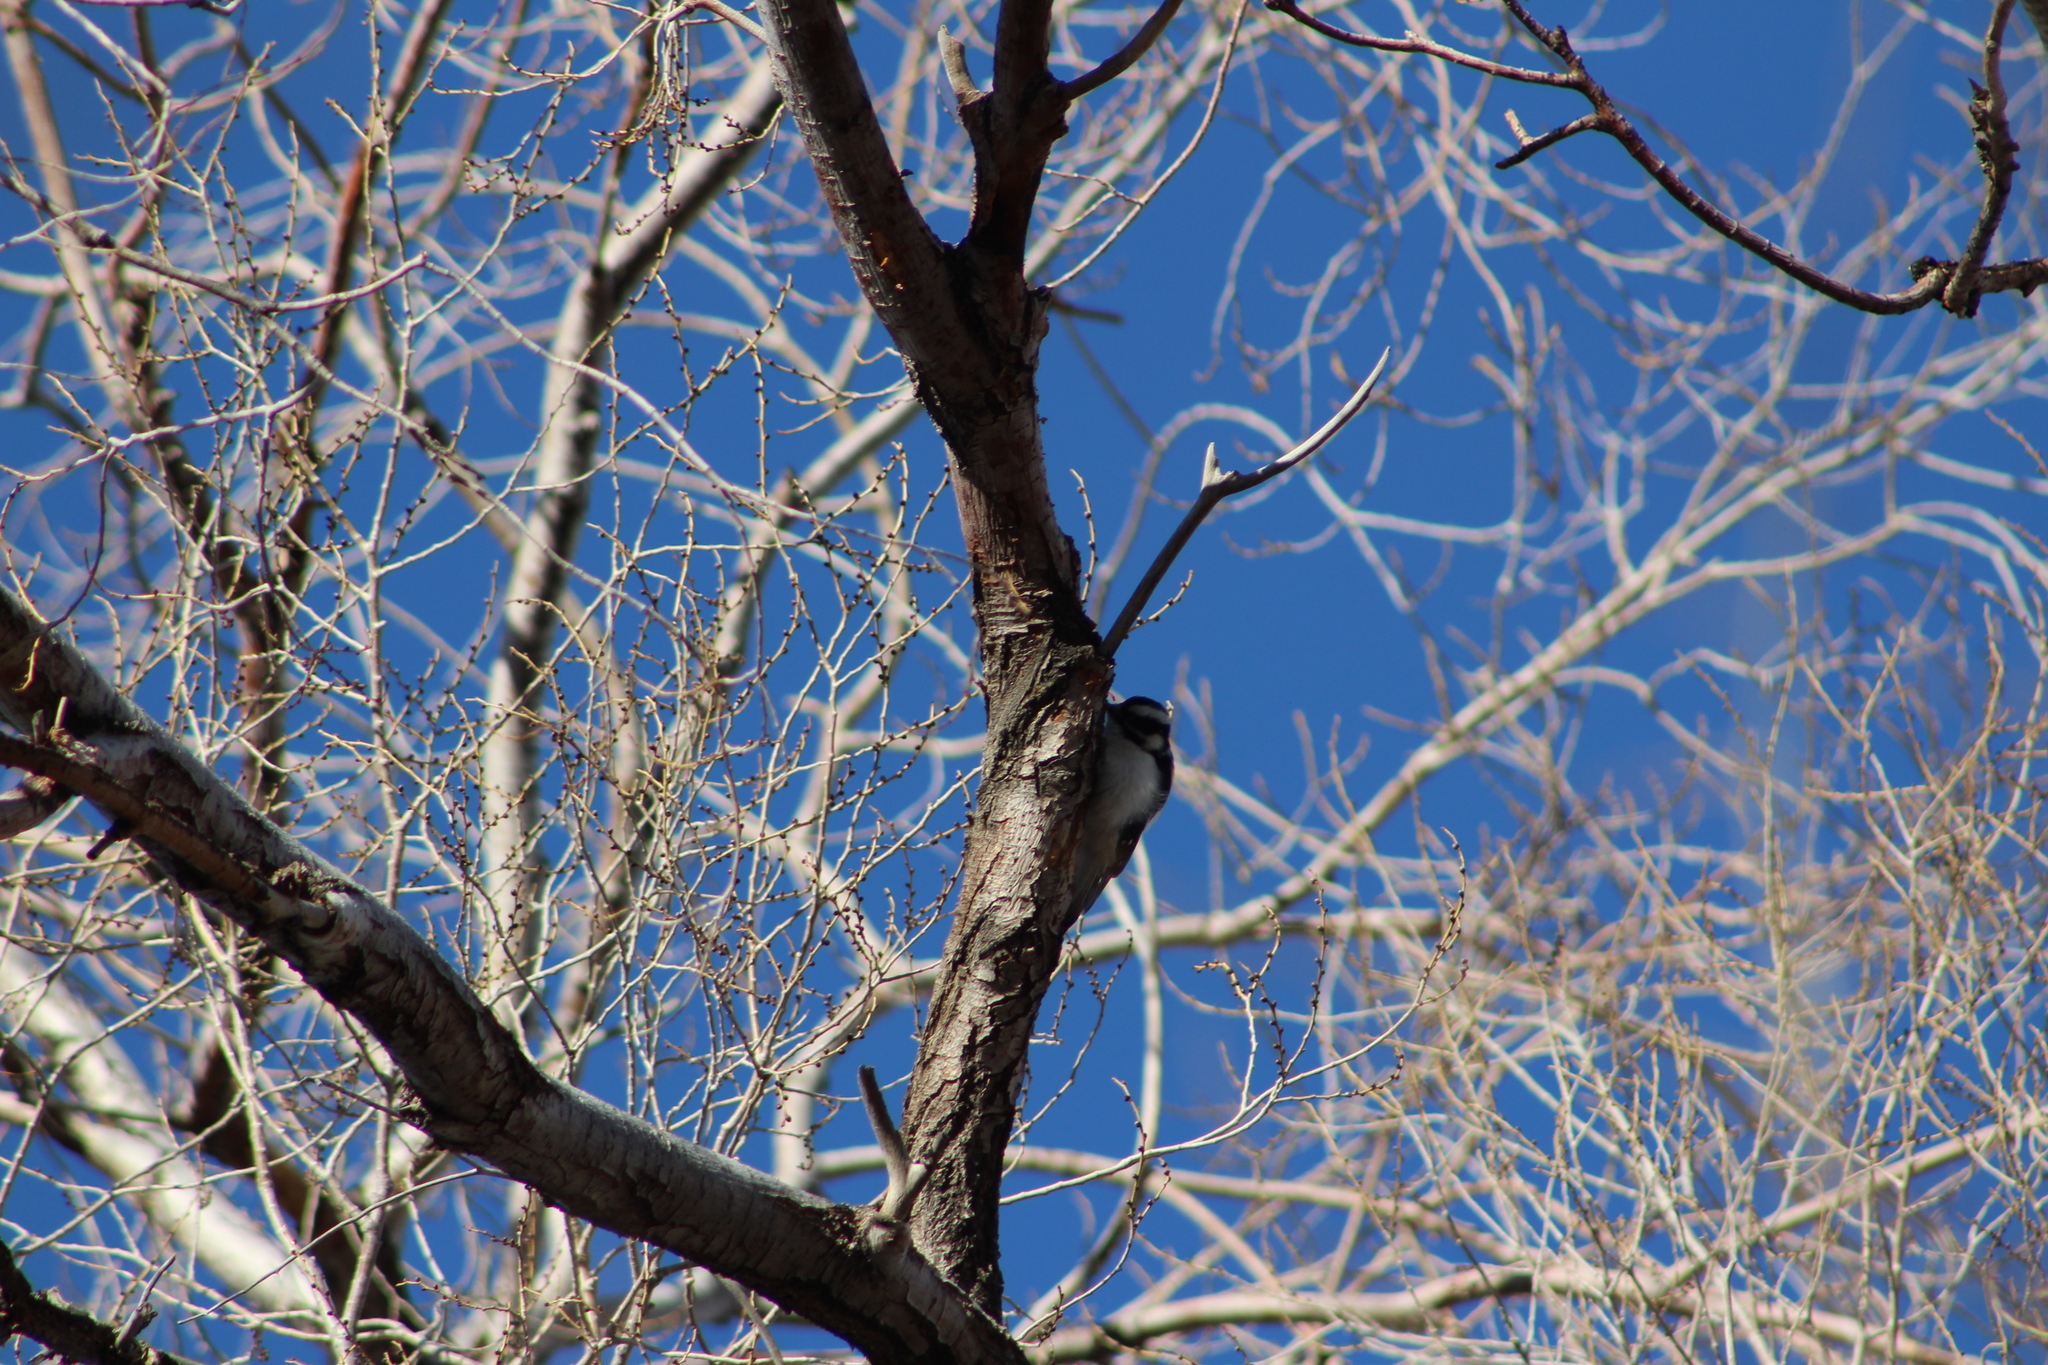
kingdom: Animalia
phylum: Chordata
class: Aves
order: Piciformes
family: Picidae
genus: Dryobates
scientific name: Dryobates pubescens
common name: Downy woodpecker
